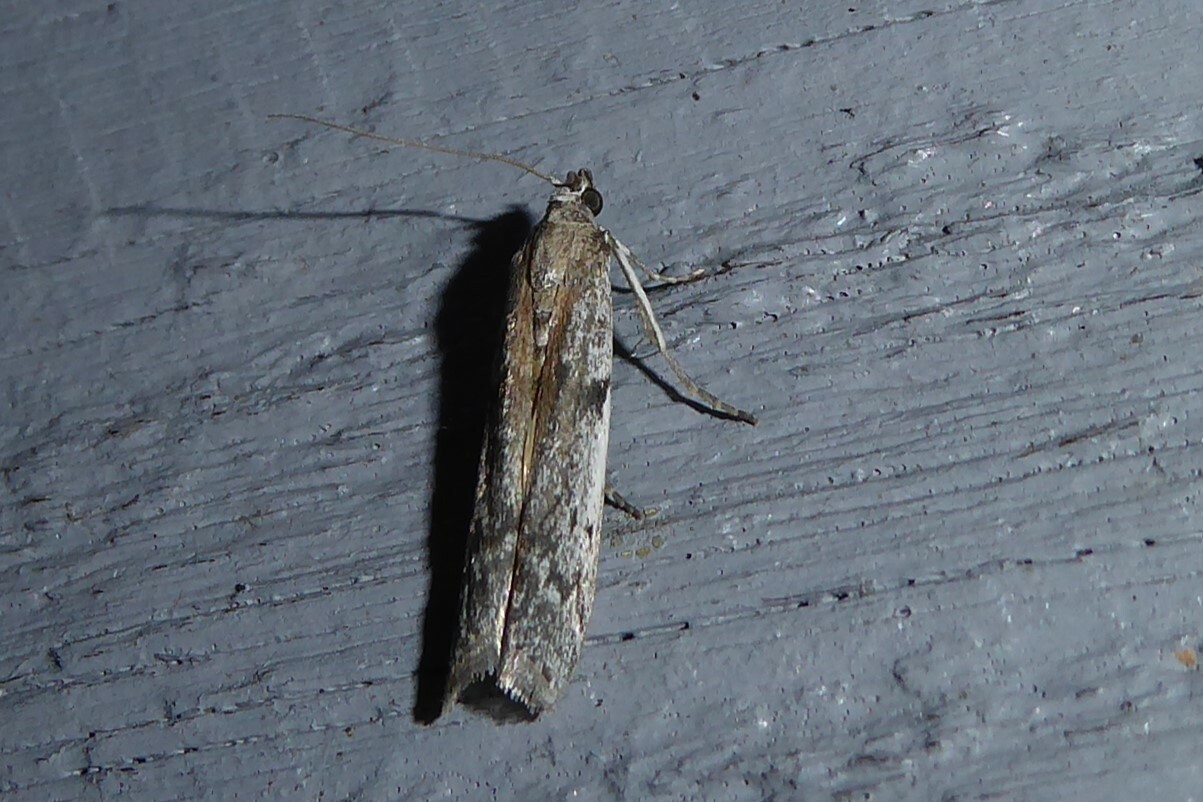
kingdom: Animalia
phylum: Arthropoda
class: Insecta
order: Lepidoptera
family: Pyralidae
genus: Patagoniodes
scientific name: Patagoniodes farinaria
